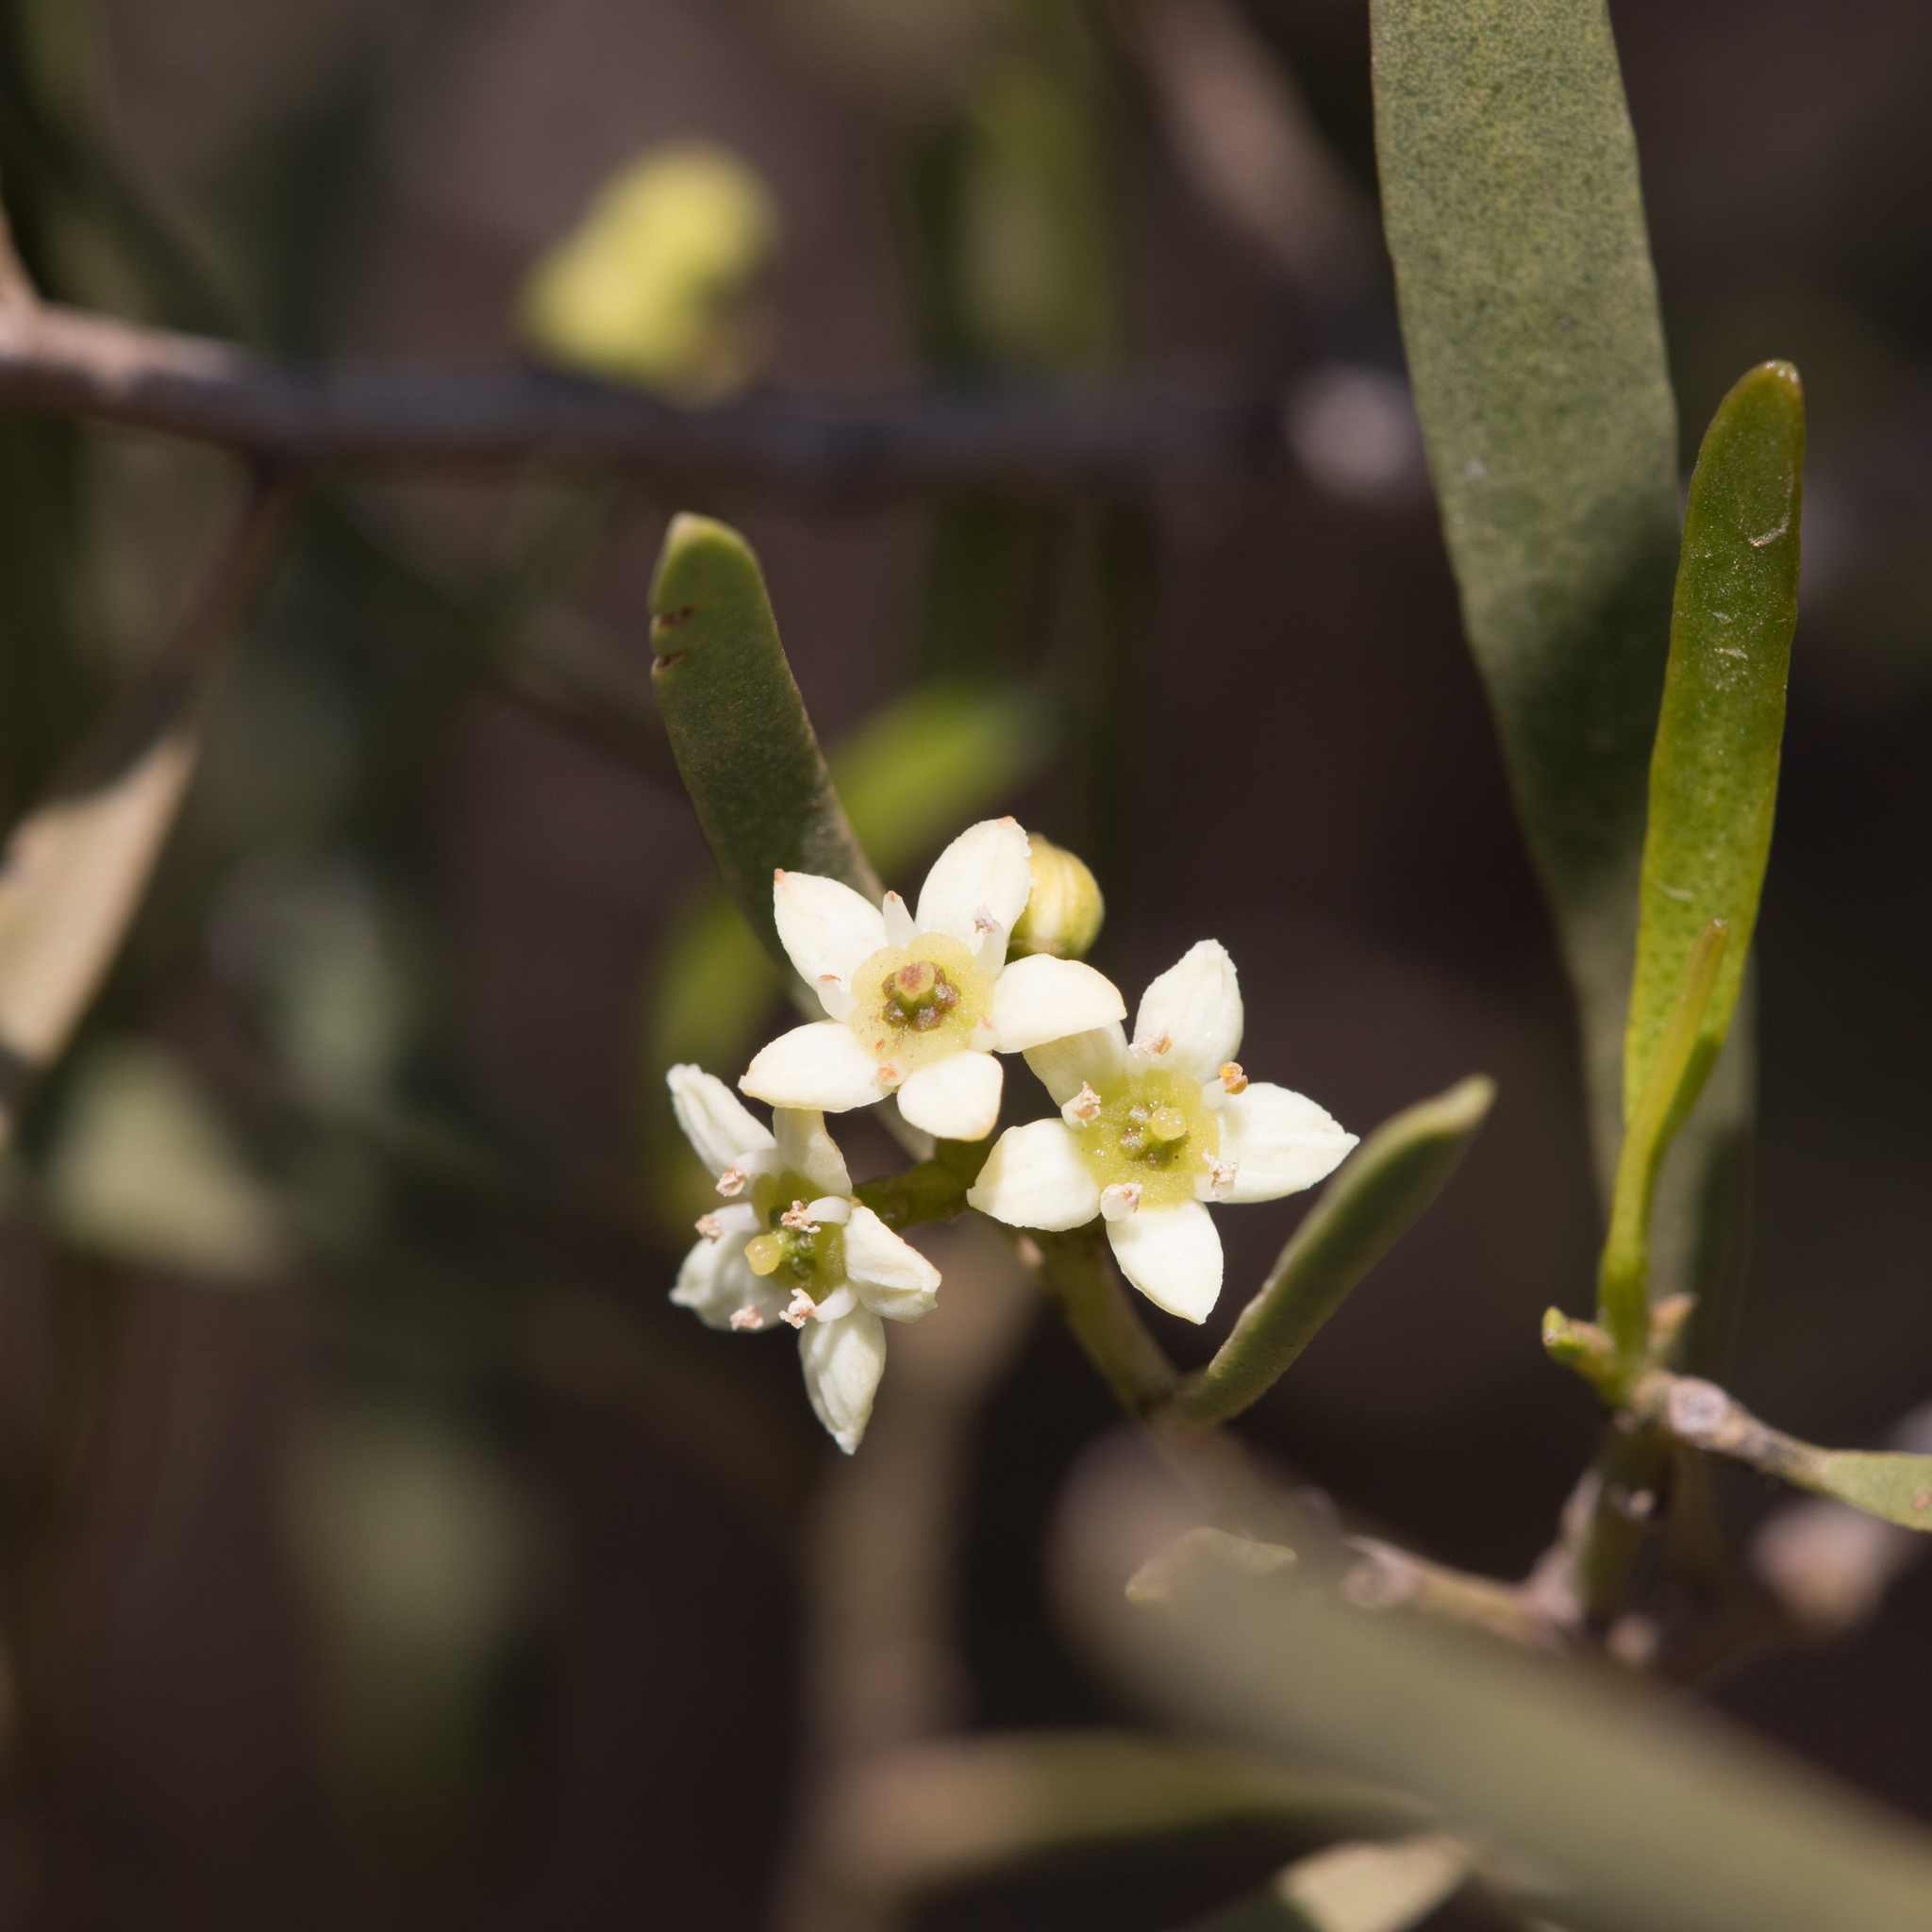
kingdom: Plantae
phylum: Tracheophyta
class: Magnoliopsida
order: Sapindales
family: Rutaceae
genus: Geijera
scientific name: Geijera linearifolia
